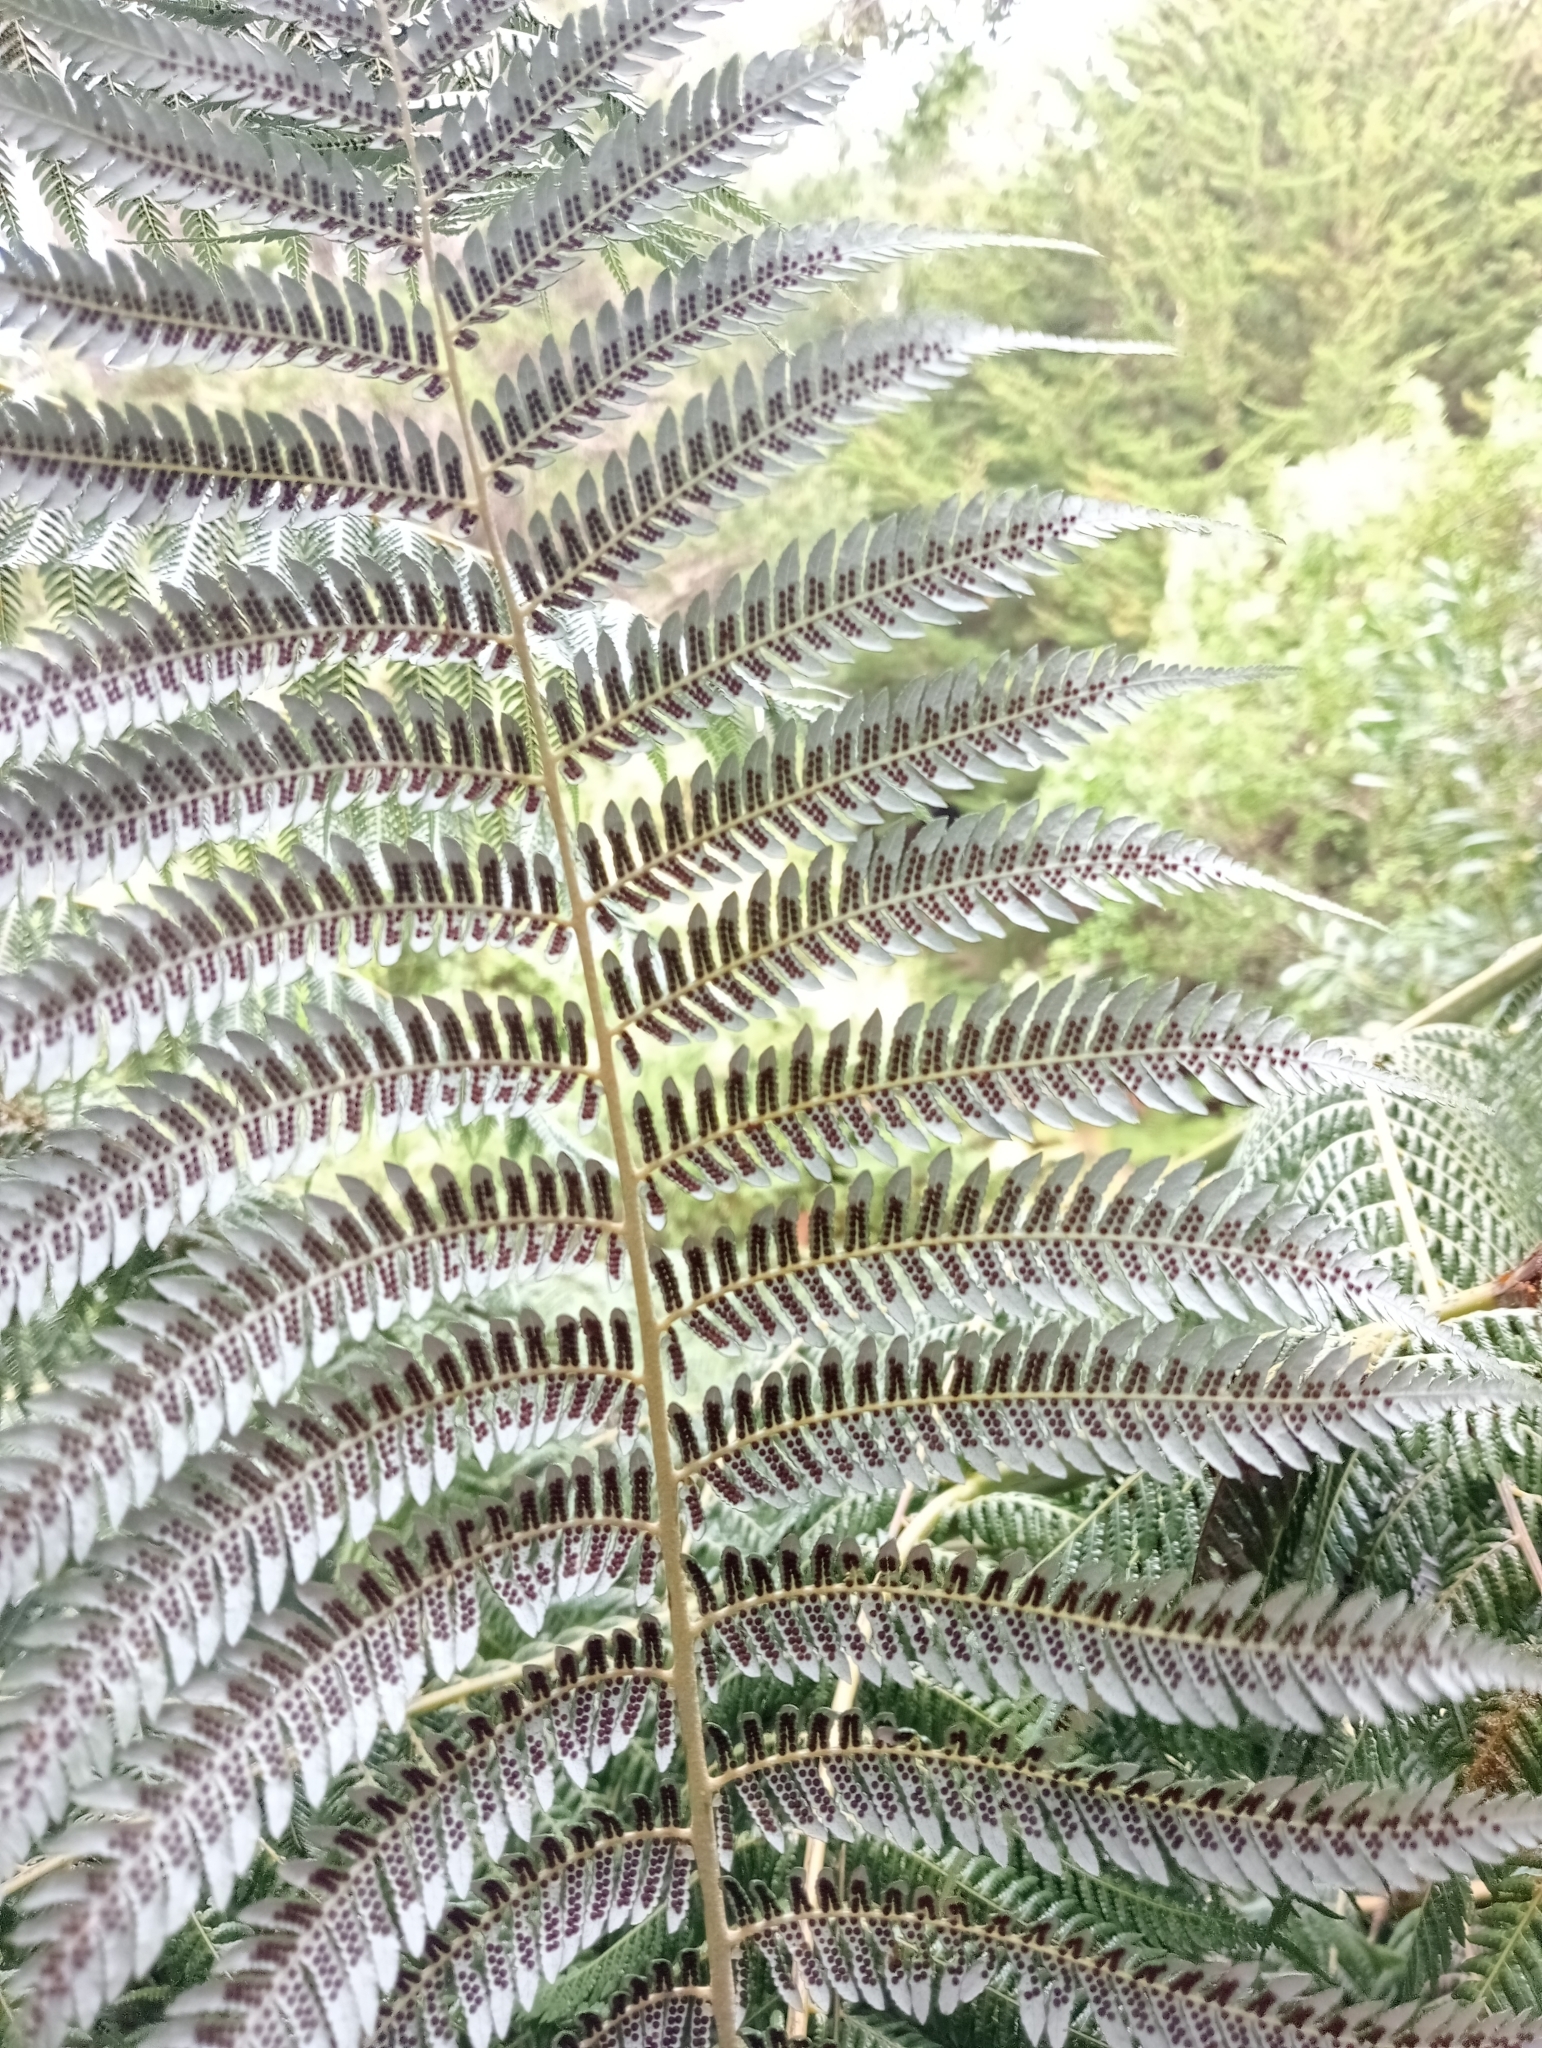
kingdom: Plantae
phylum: Tracheophyta
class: Polypodiopsida
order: Cyatheales
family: Cyatheaceae
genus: Alsophila
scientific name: Alsophila dealbata
